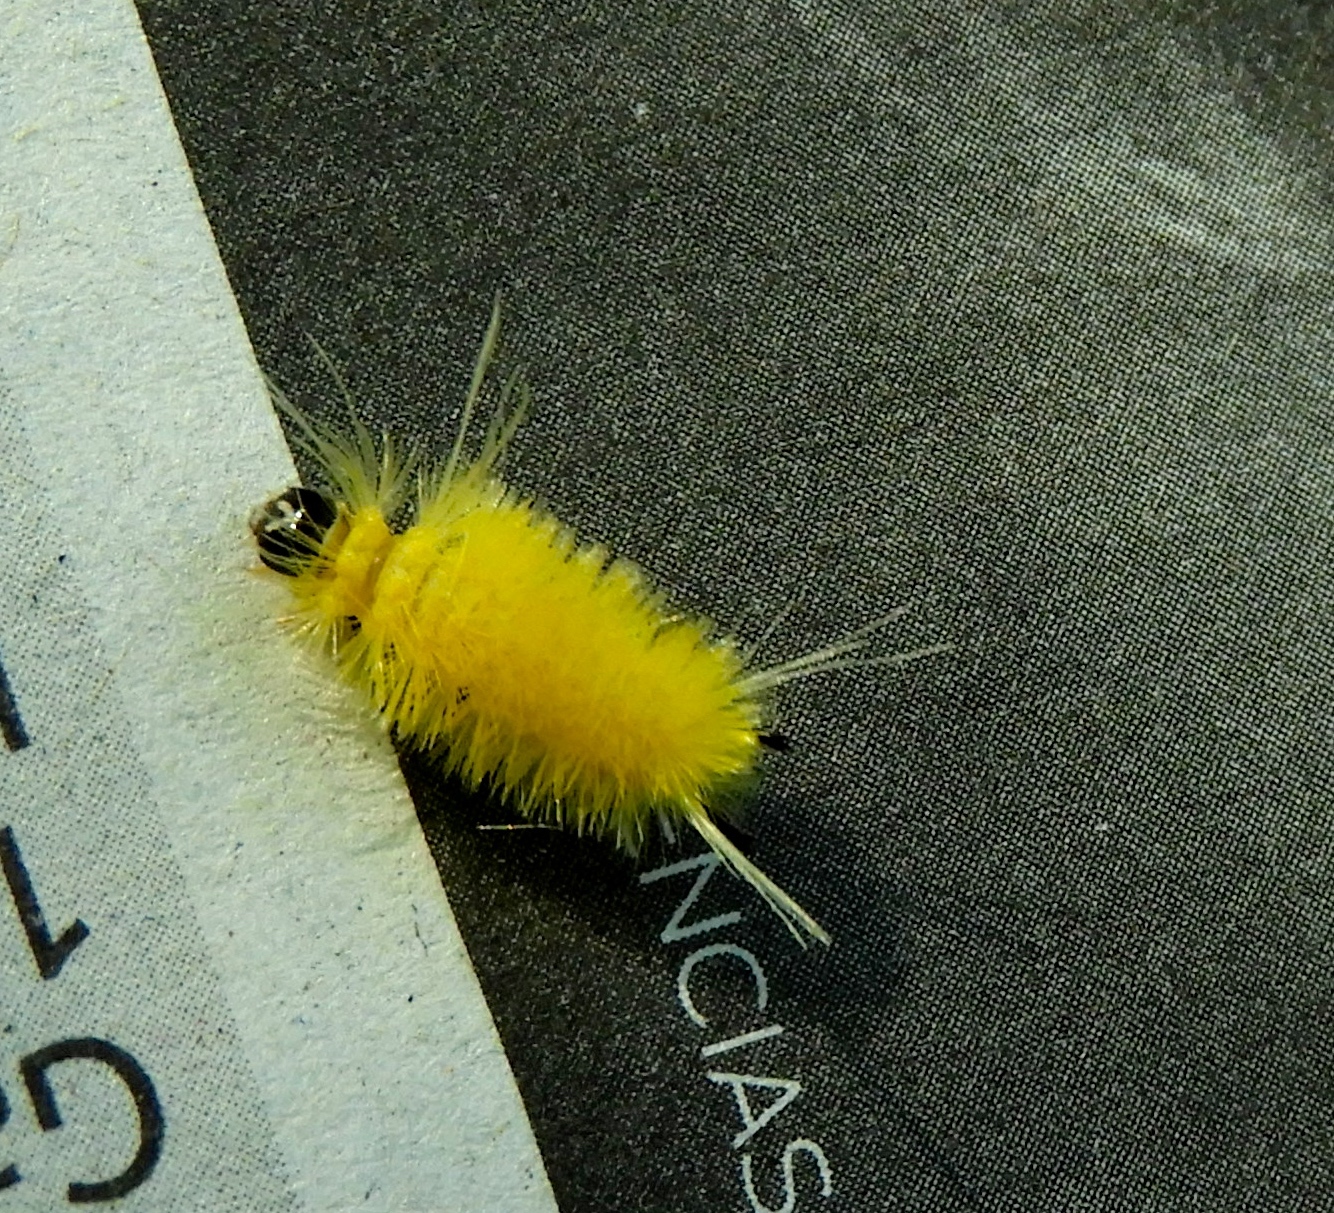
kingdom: Animalia
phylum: Arthropoda
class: Insecta
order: Lepidoptera
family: Erebidae
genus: Lophocampa
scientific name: Lophocampa annulosa
